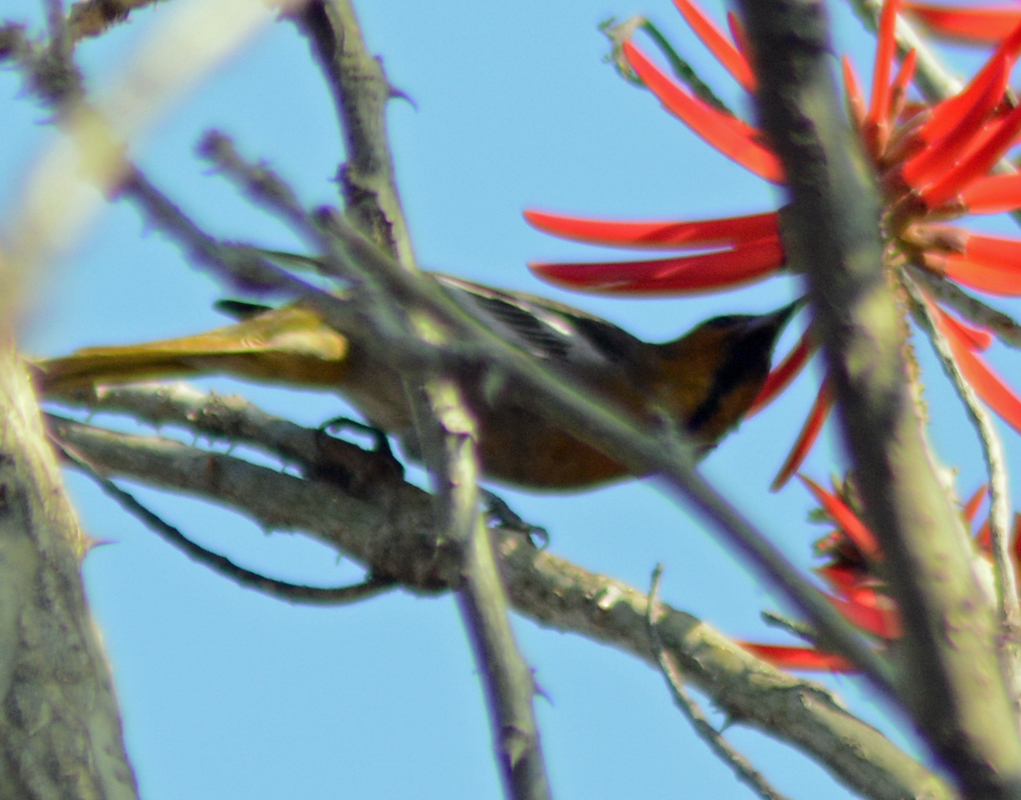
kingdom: Animalia
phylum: Chordata
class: Aves
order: Passeriformes
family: Icteridae
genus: Icterus
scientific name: Icterus abeillei
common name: Black-backed oriole
